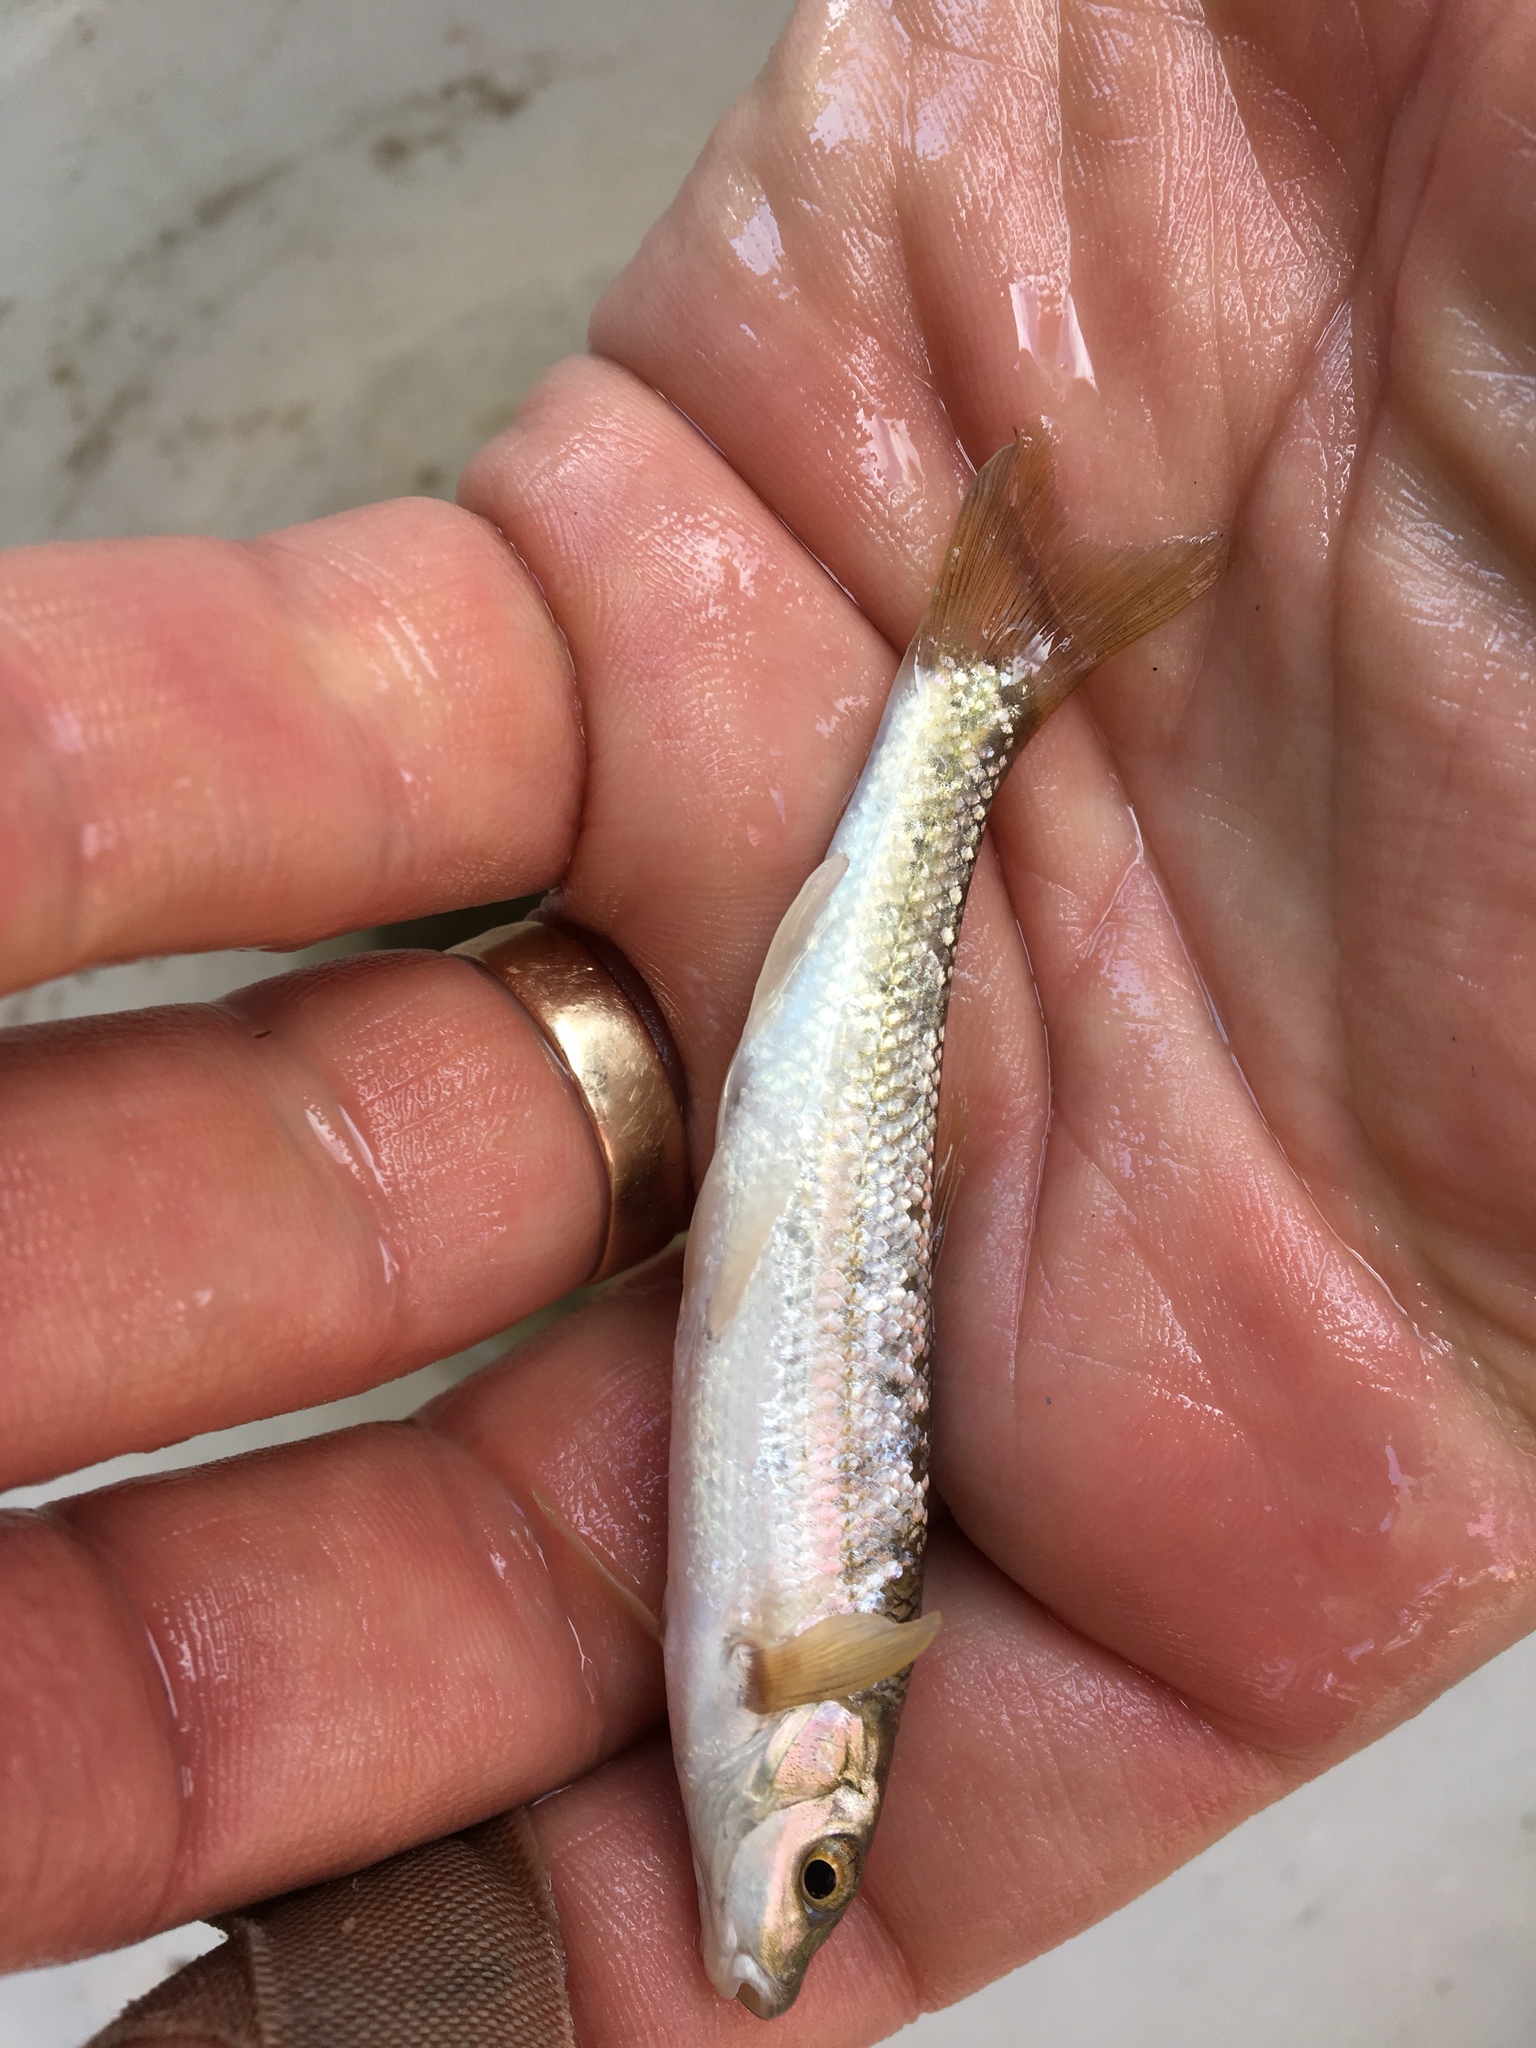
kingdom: Animalia
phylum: Chordata
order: Cypriniformes
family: Cyprinidae
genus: Campostoma
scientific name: Campostoma anomalum
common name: Central stoneroller
